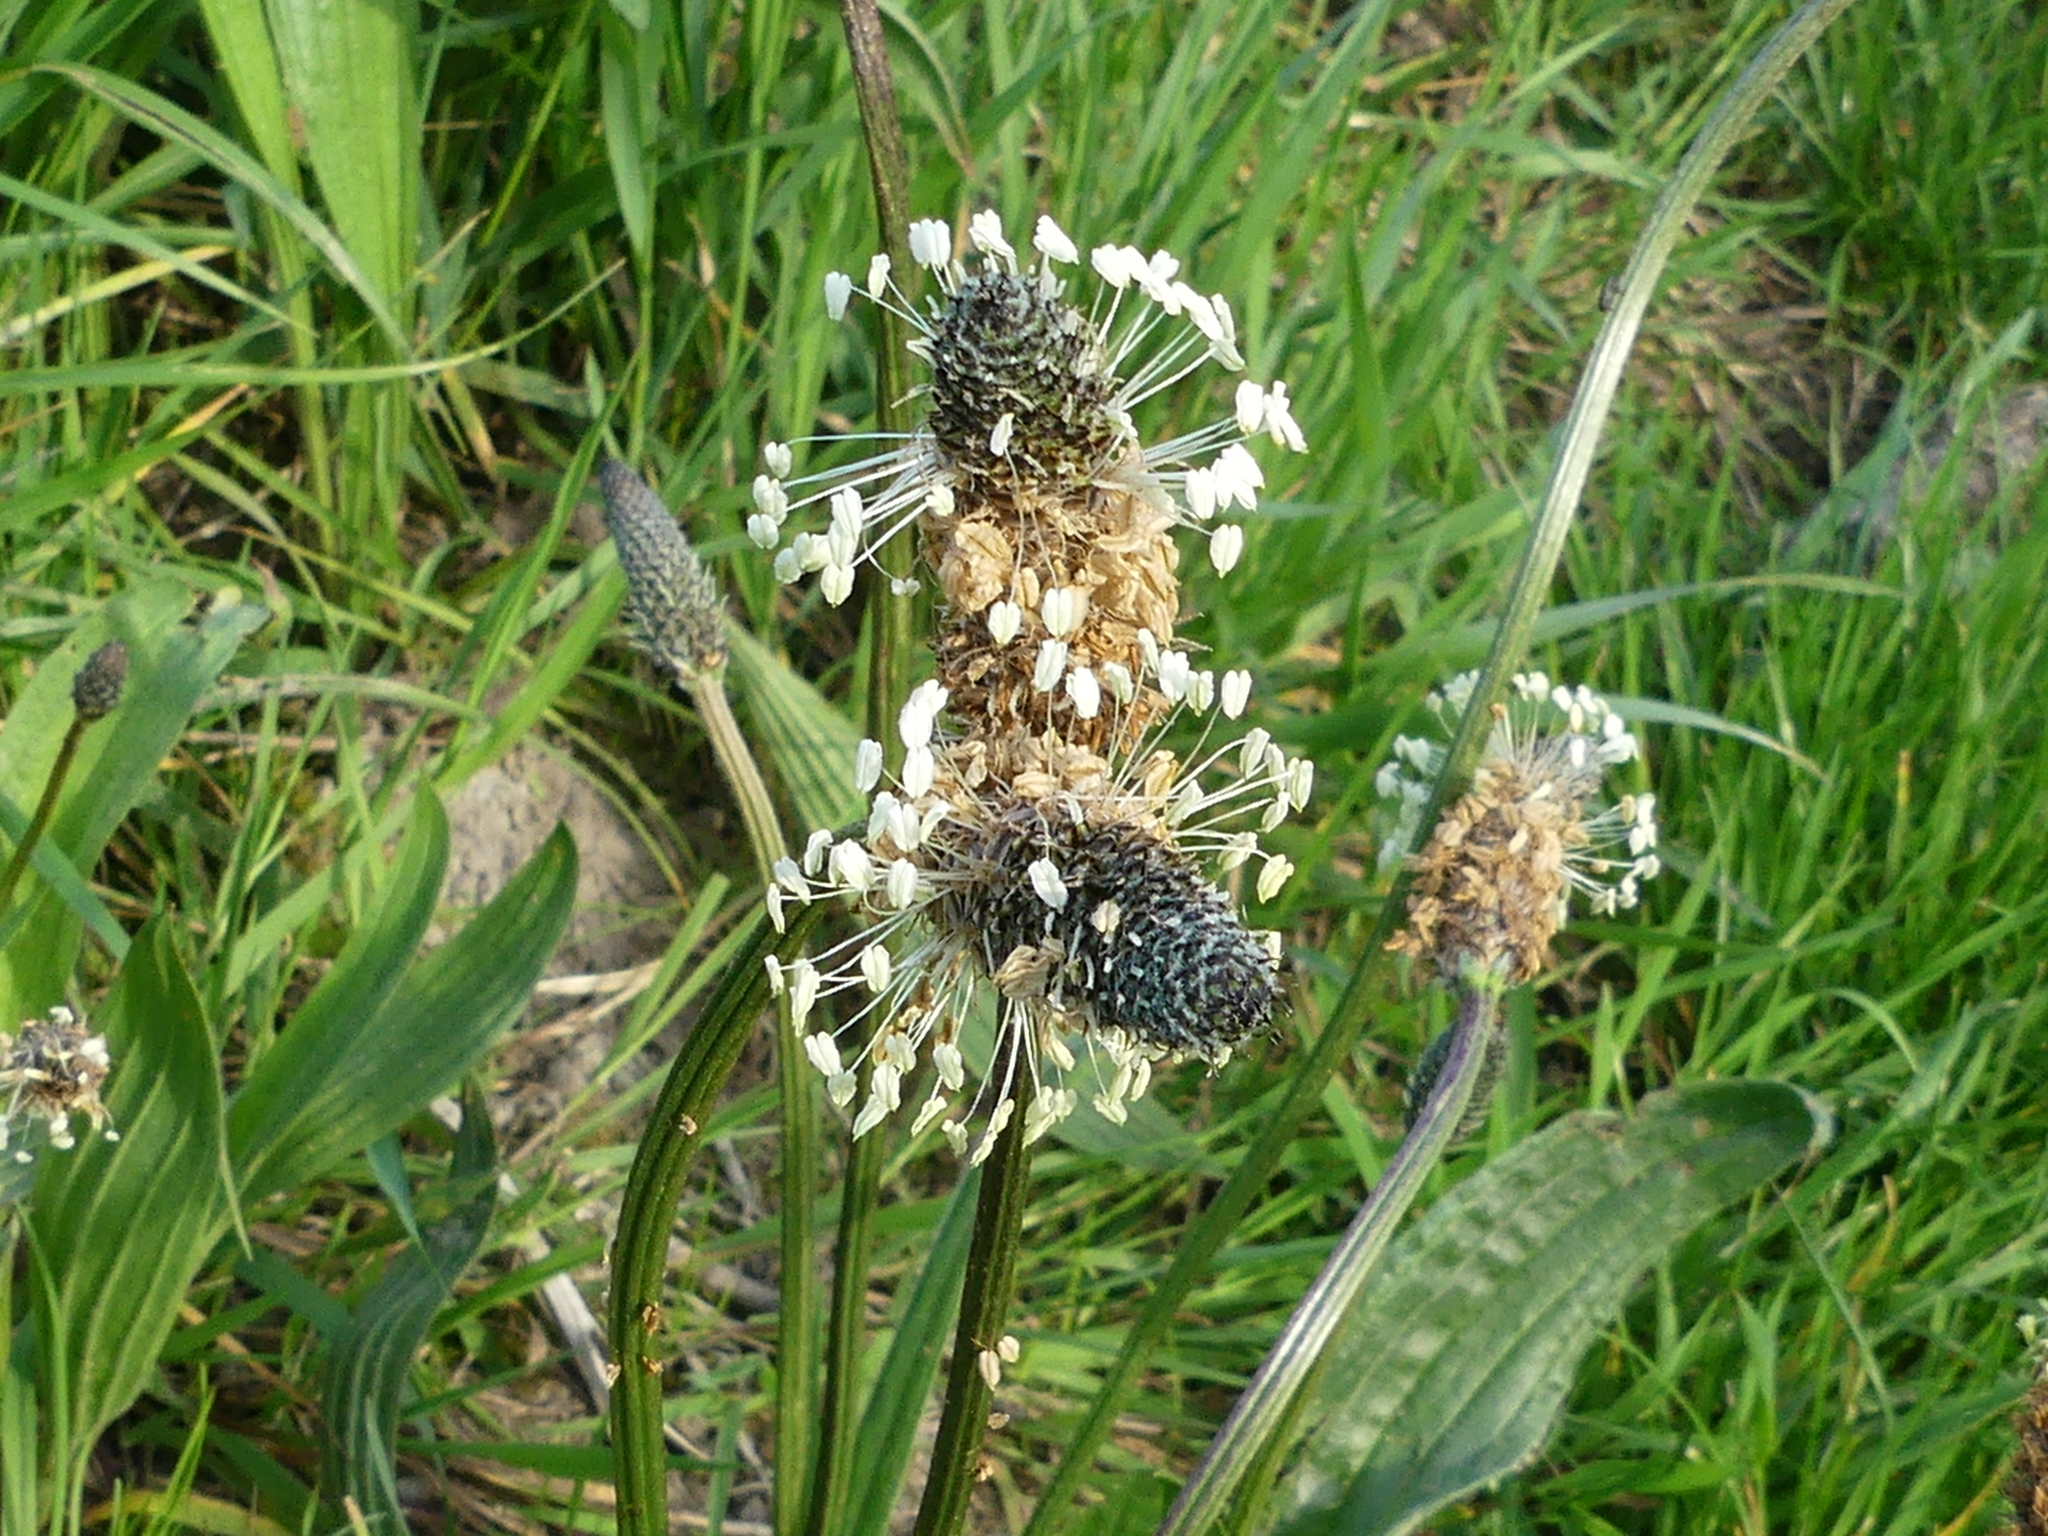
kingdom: Plantae
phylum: Tracheophyta
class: Magnoliopsida
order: Lamiales
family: Plantaginaceae
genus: Plantago
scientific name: Plantago lanceolata
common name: Ribwort plantain
